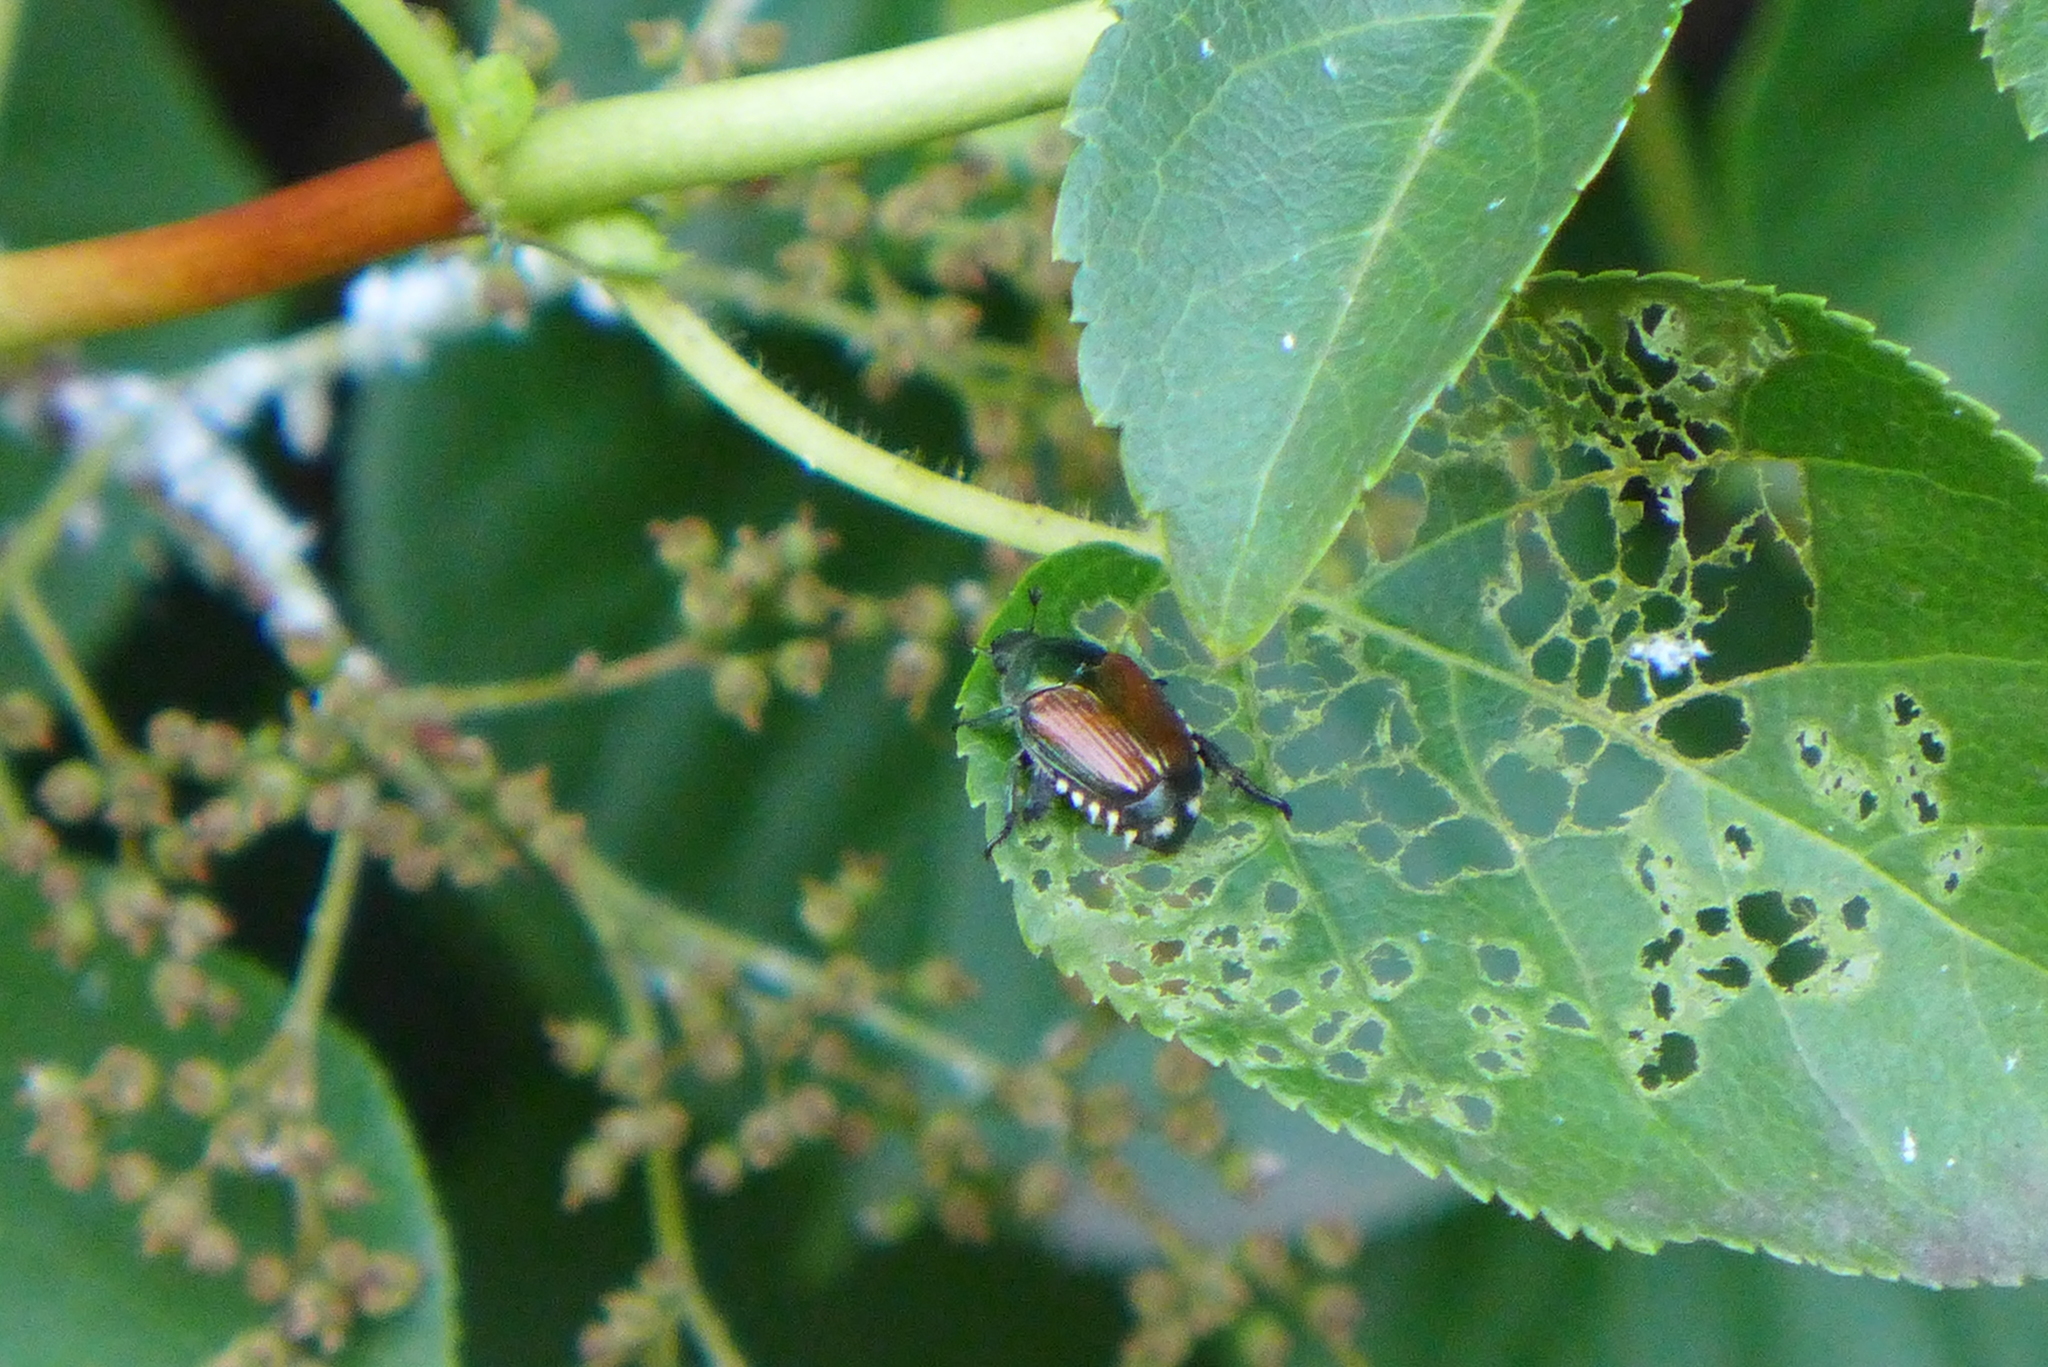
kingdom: Animalia
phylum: Arthropoda
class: Insecta
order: Coleoptera
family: Scarabaeidae
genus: Popillia
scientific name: Popillia japonica
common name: Japanese beetle
